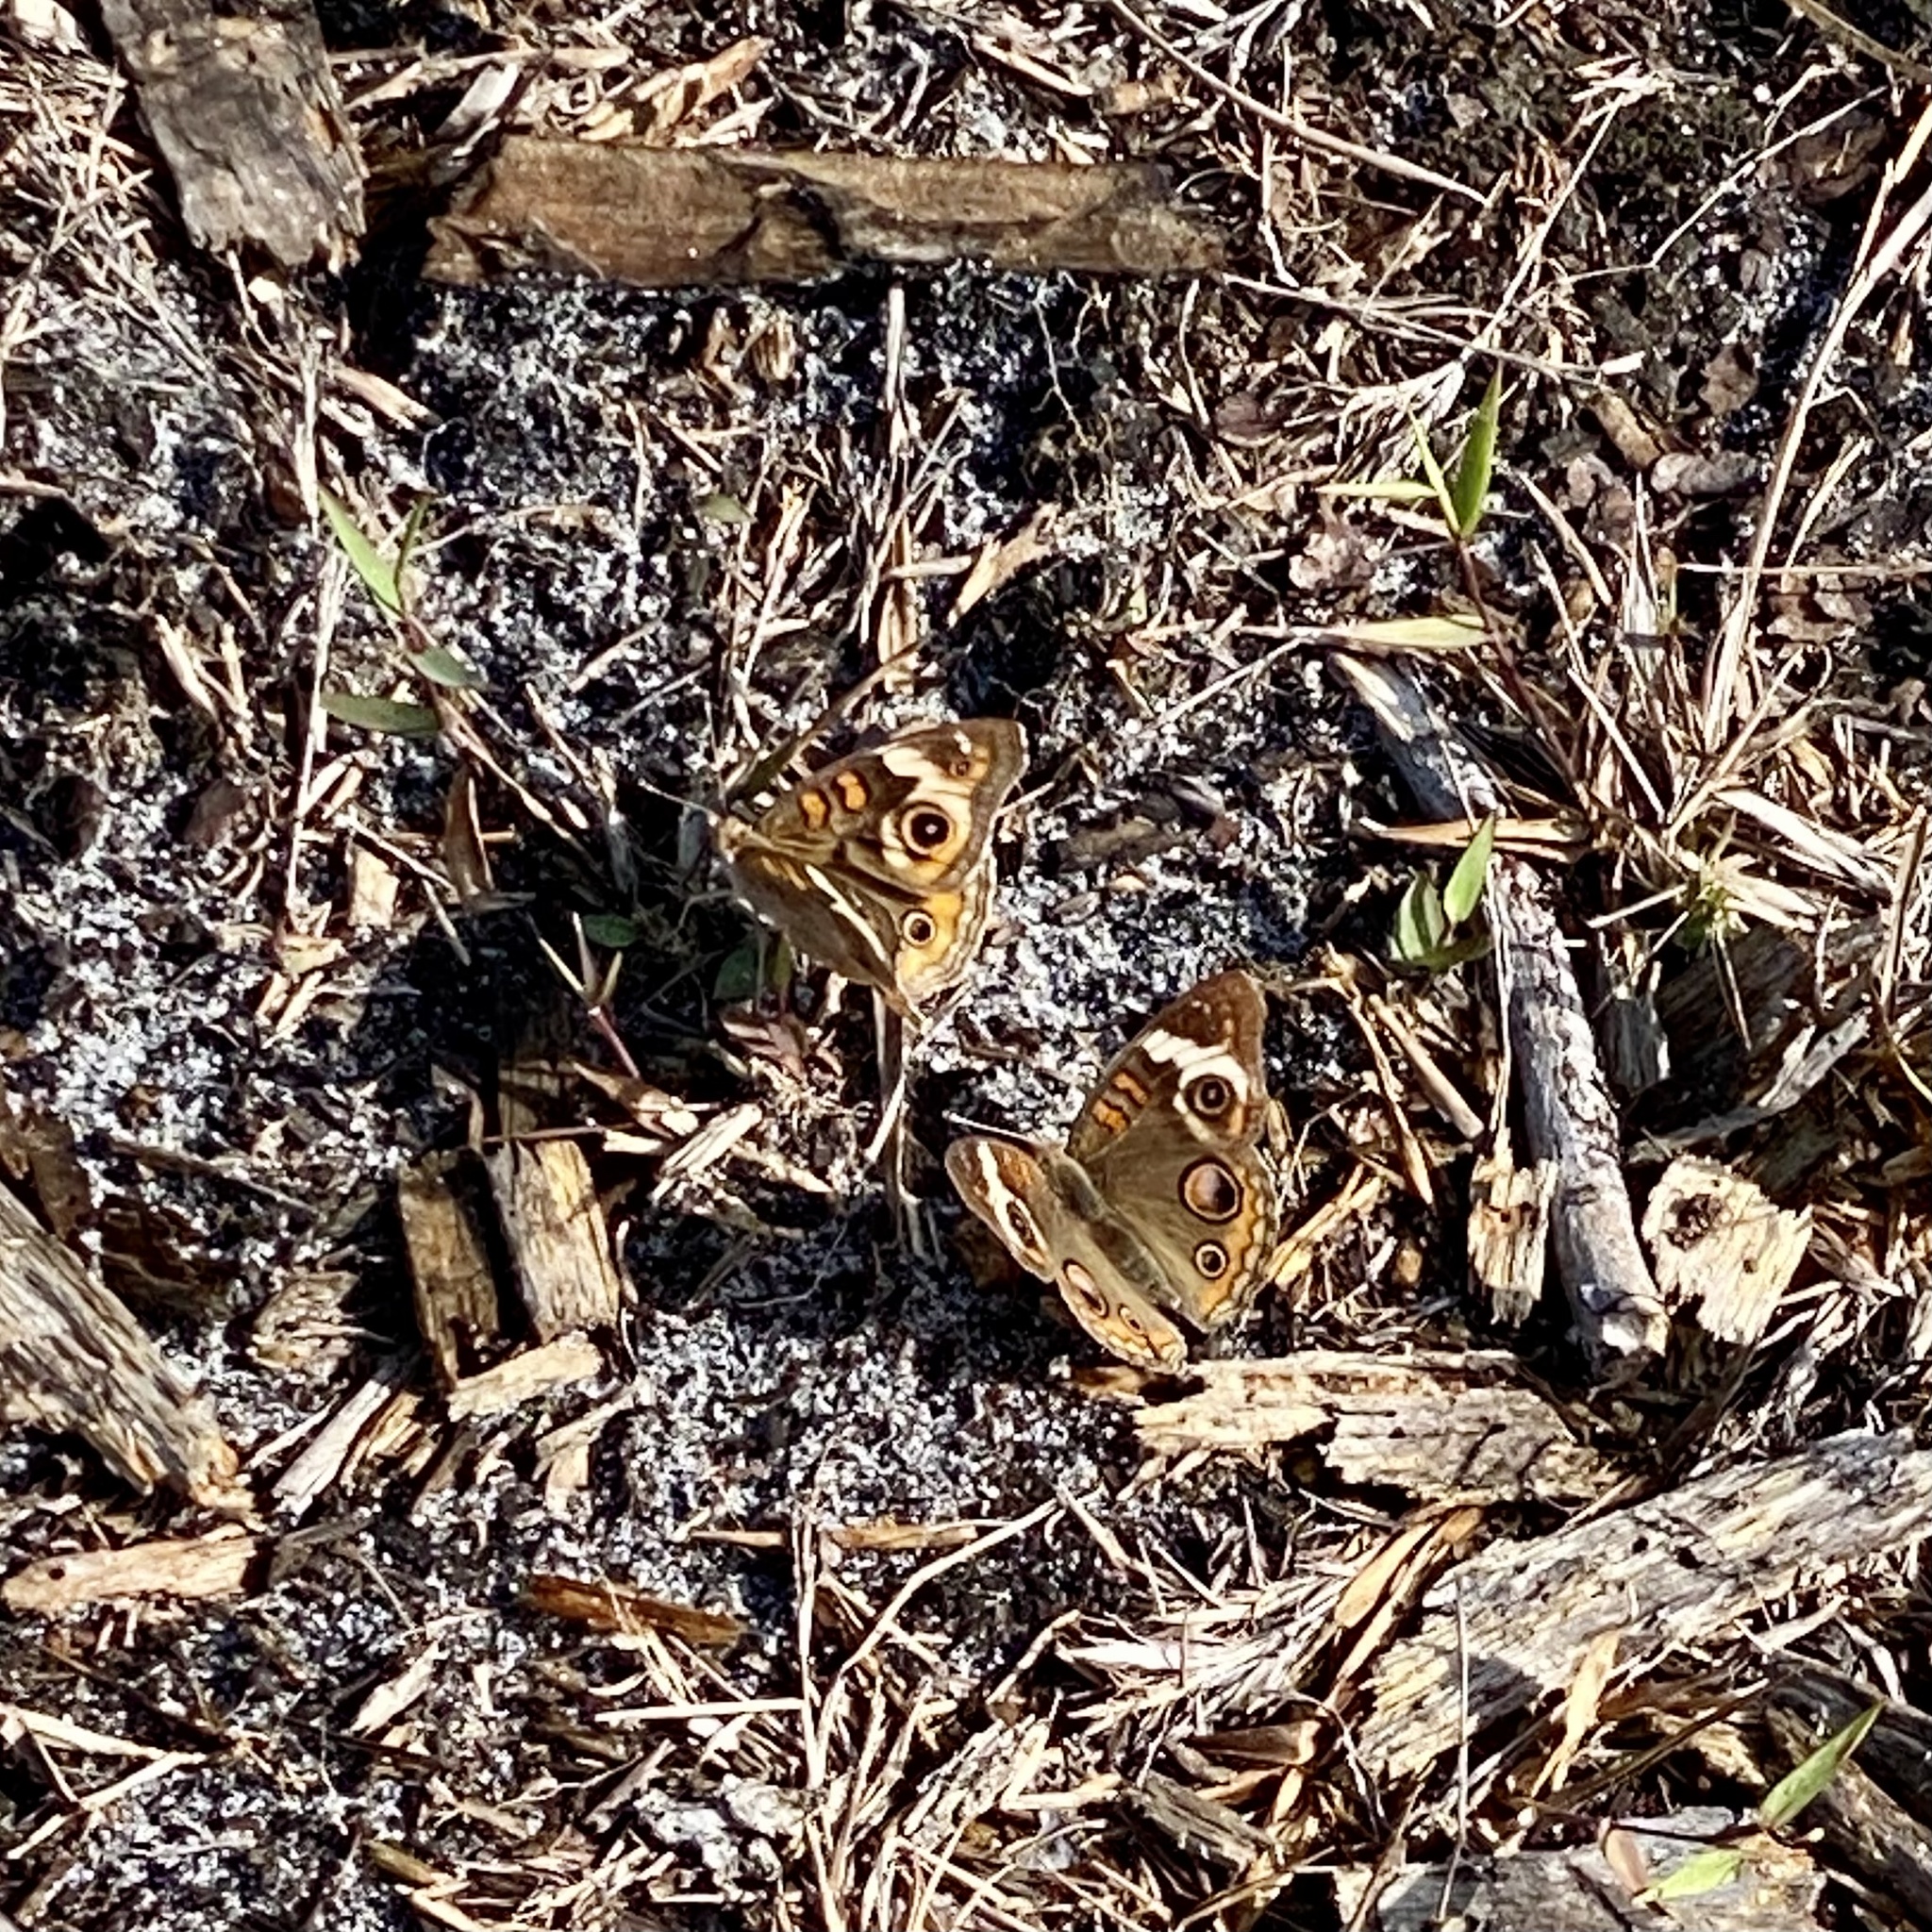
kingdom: Animalia
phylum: Arthropoda
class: Insecta
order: Lepidoptera
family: Nymphalidae
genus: Junonia
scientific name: Junonia coenia
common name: Common buckeye
